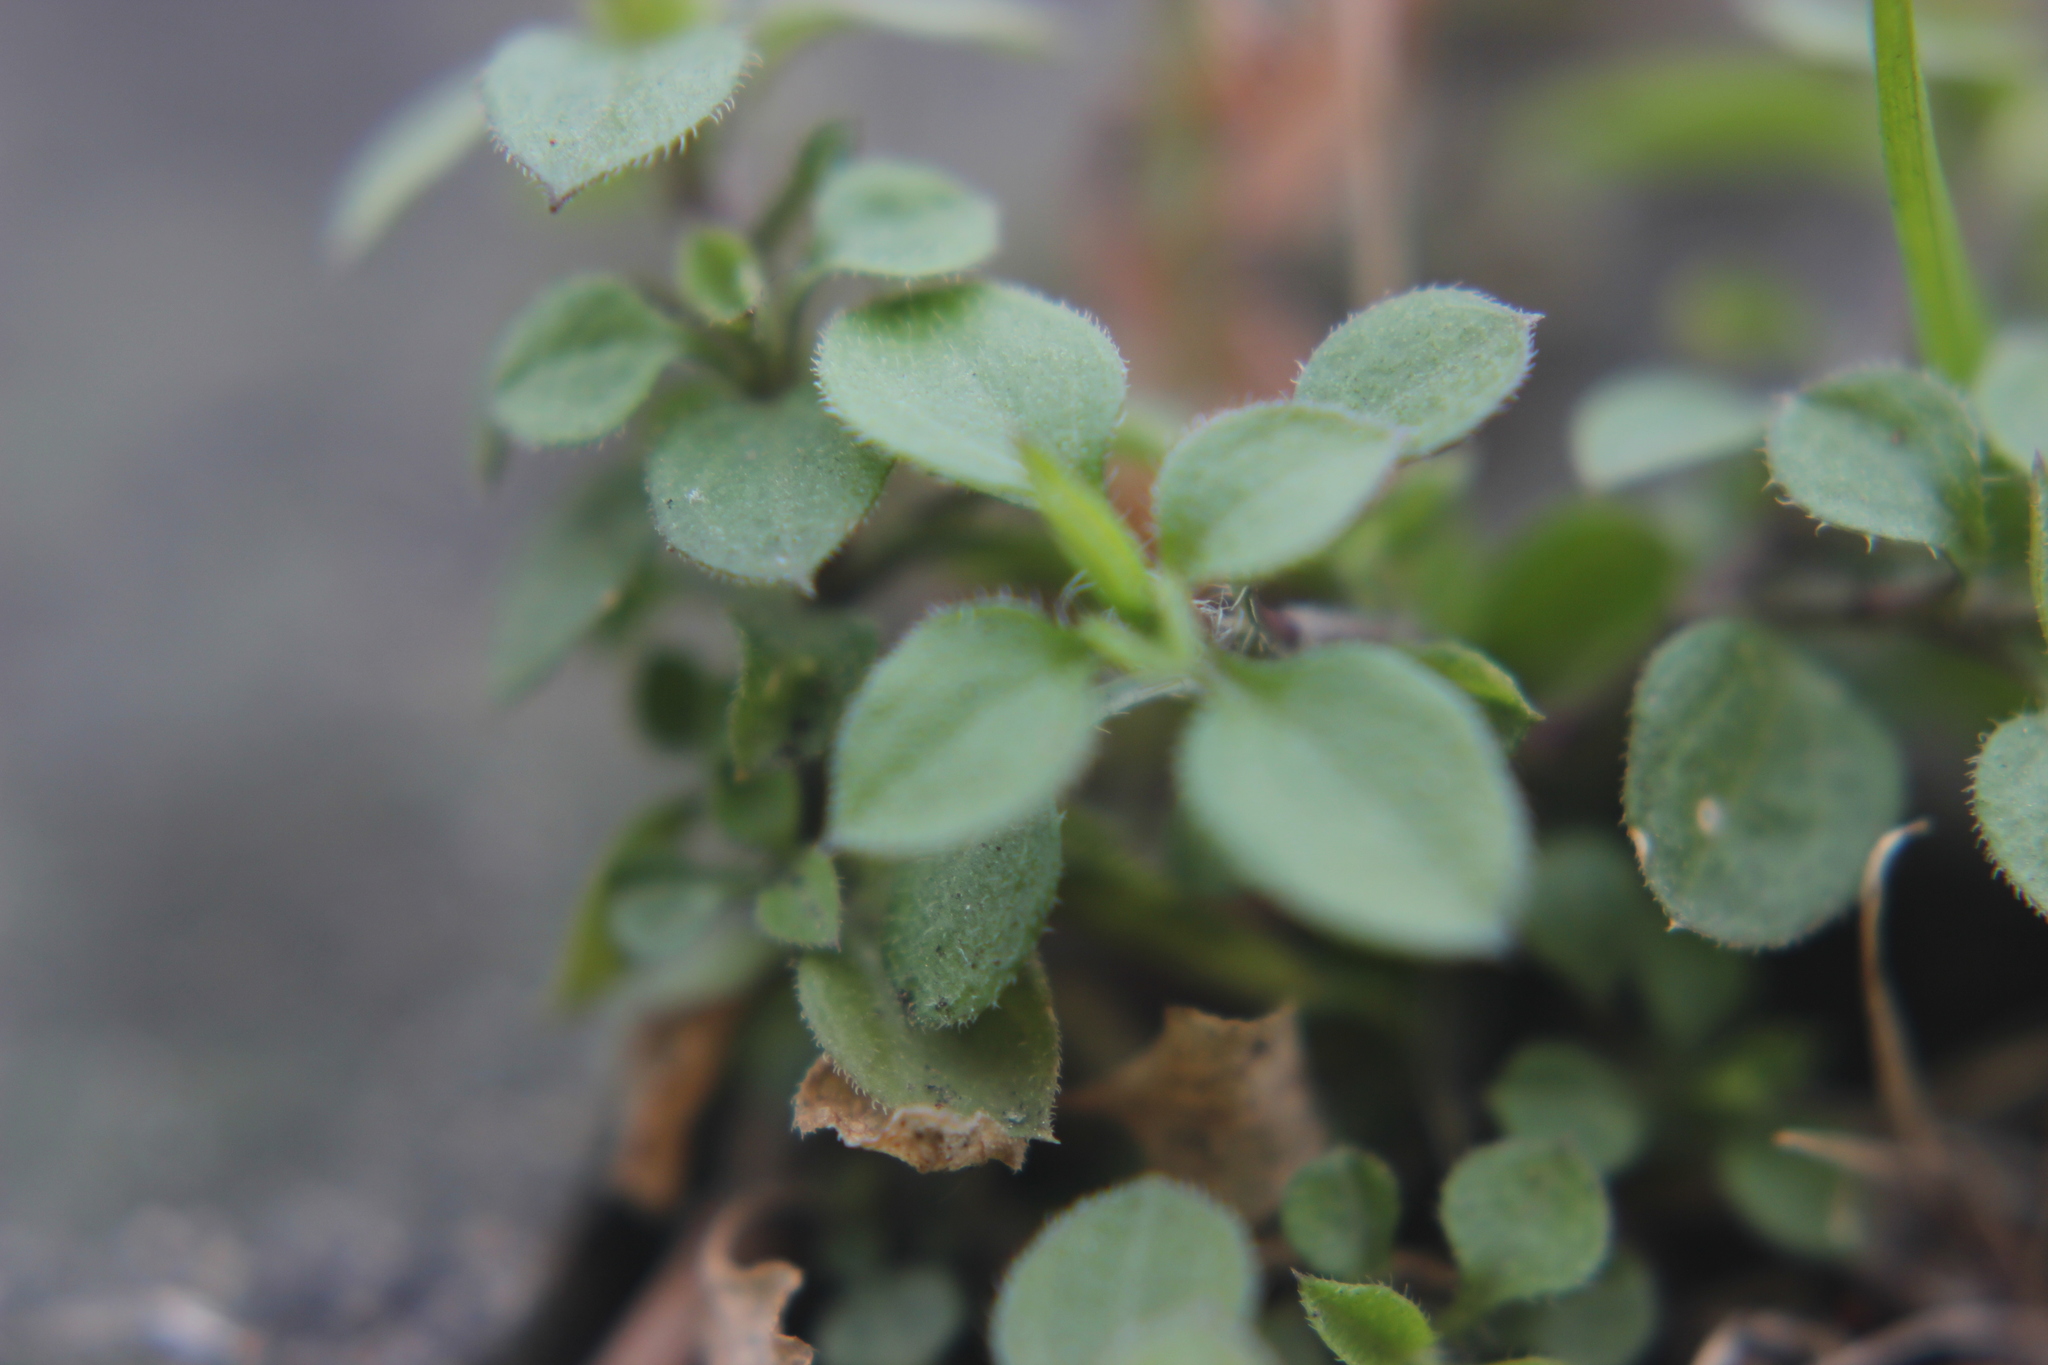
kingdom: Plantae
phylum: Tracheophyta
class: Magnoliopsida
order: Caryophyllales
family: Caryophyllaceae
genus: Stellaria
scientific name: Stellaria media
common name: Common chickweed
